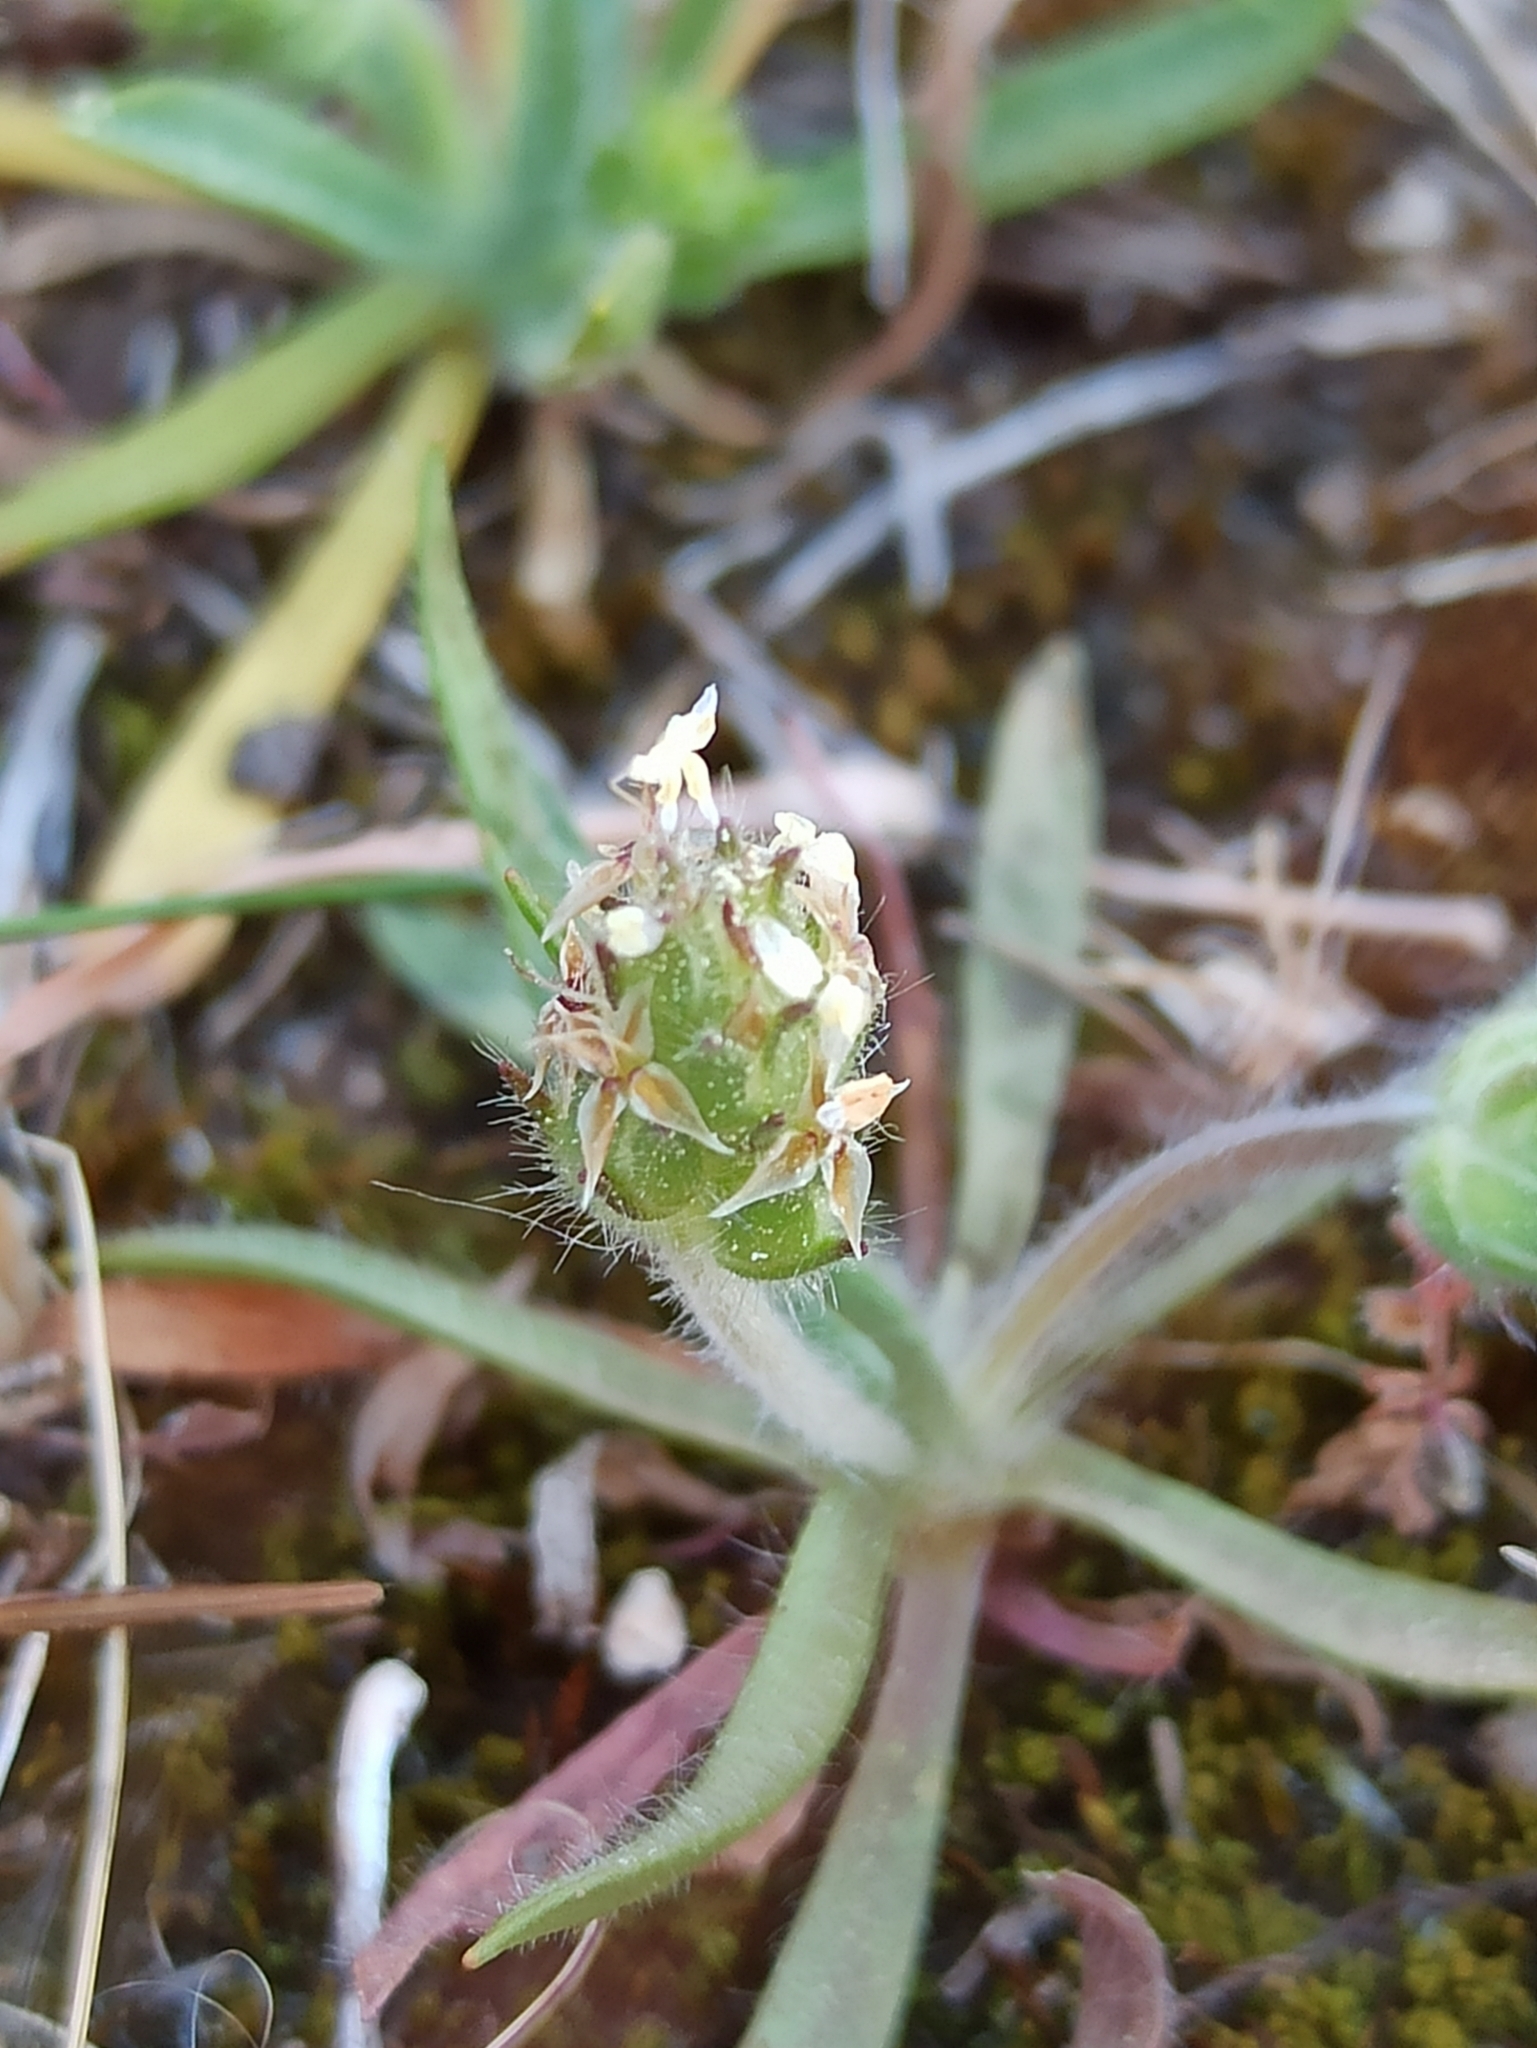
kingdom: Plantae
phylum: Tracheophyta
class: Magnoliopsida
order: Lamiales
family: Plantaginaceae
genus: Plantago
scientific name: Plantago bellardii
